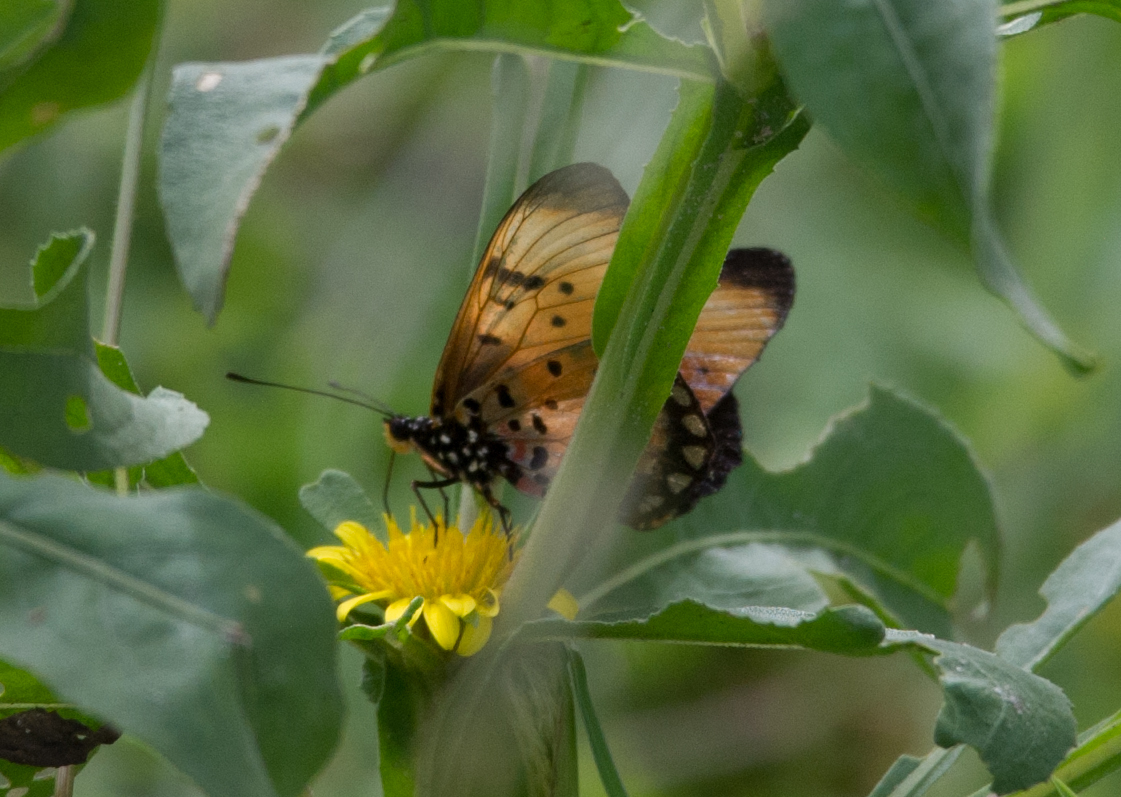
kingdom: Animalia
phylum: Arthropoda
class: Insecta
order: Lepidoptera
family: Nymphalidae
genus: Stephenia
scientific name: Stephenia
